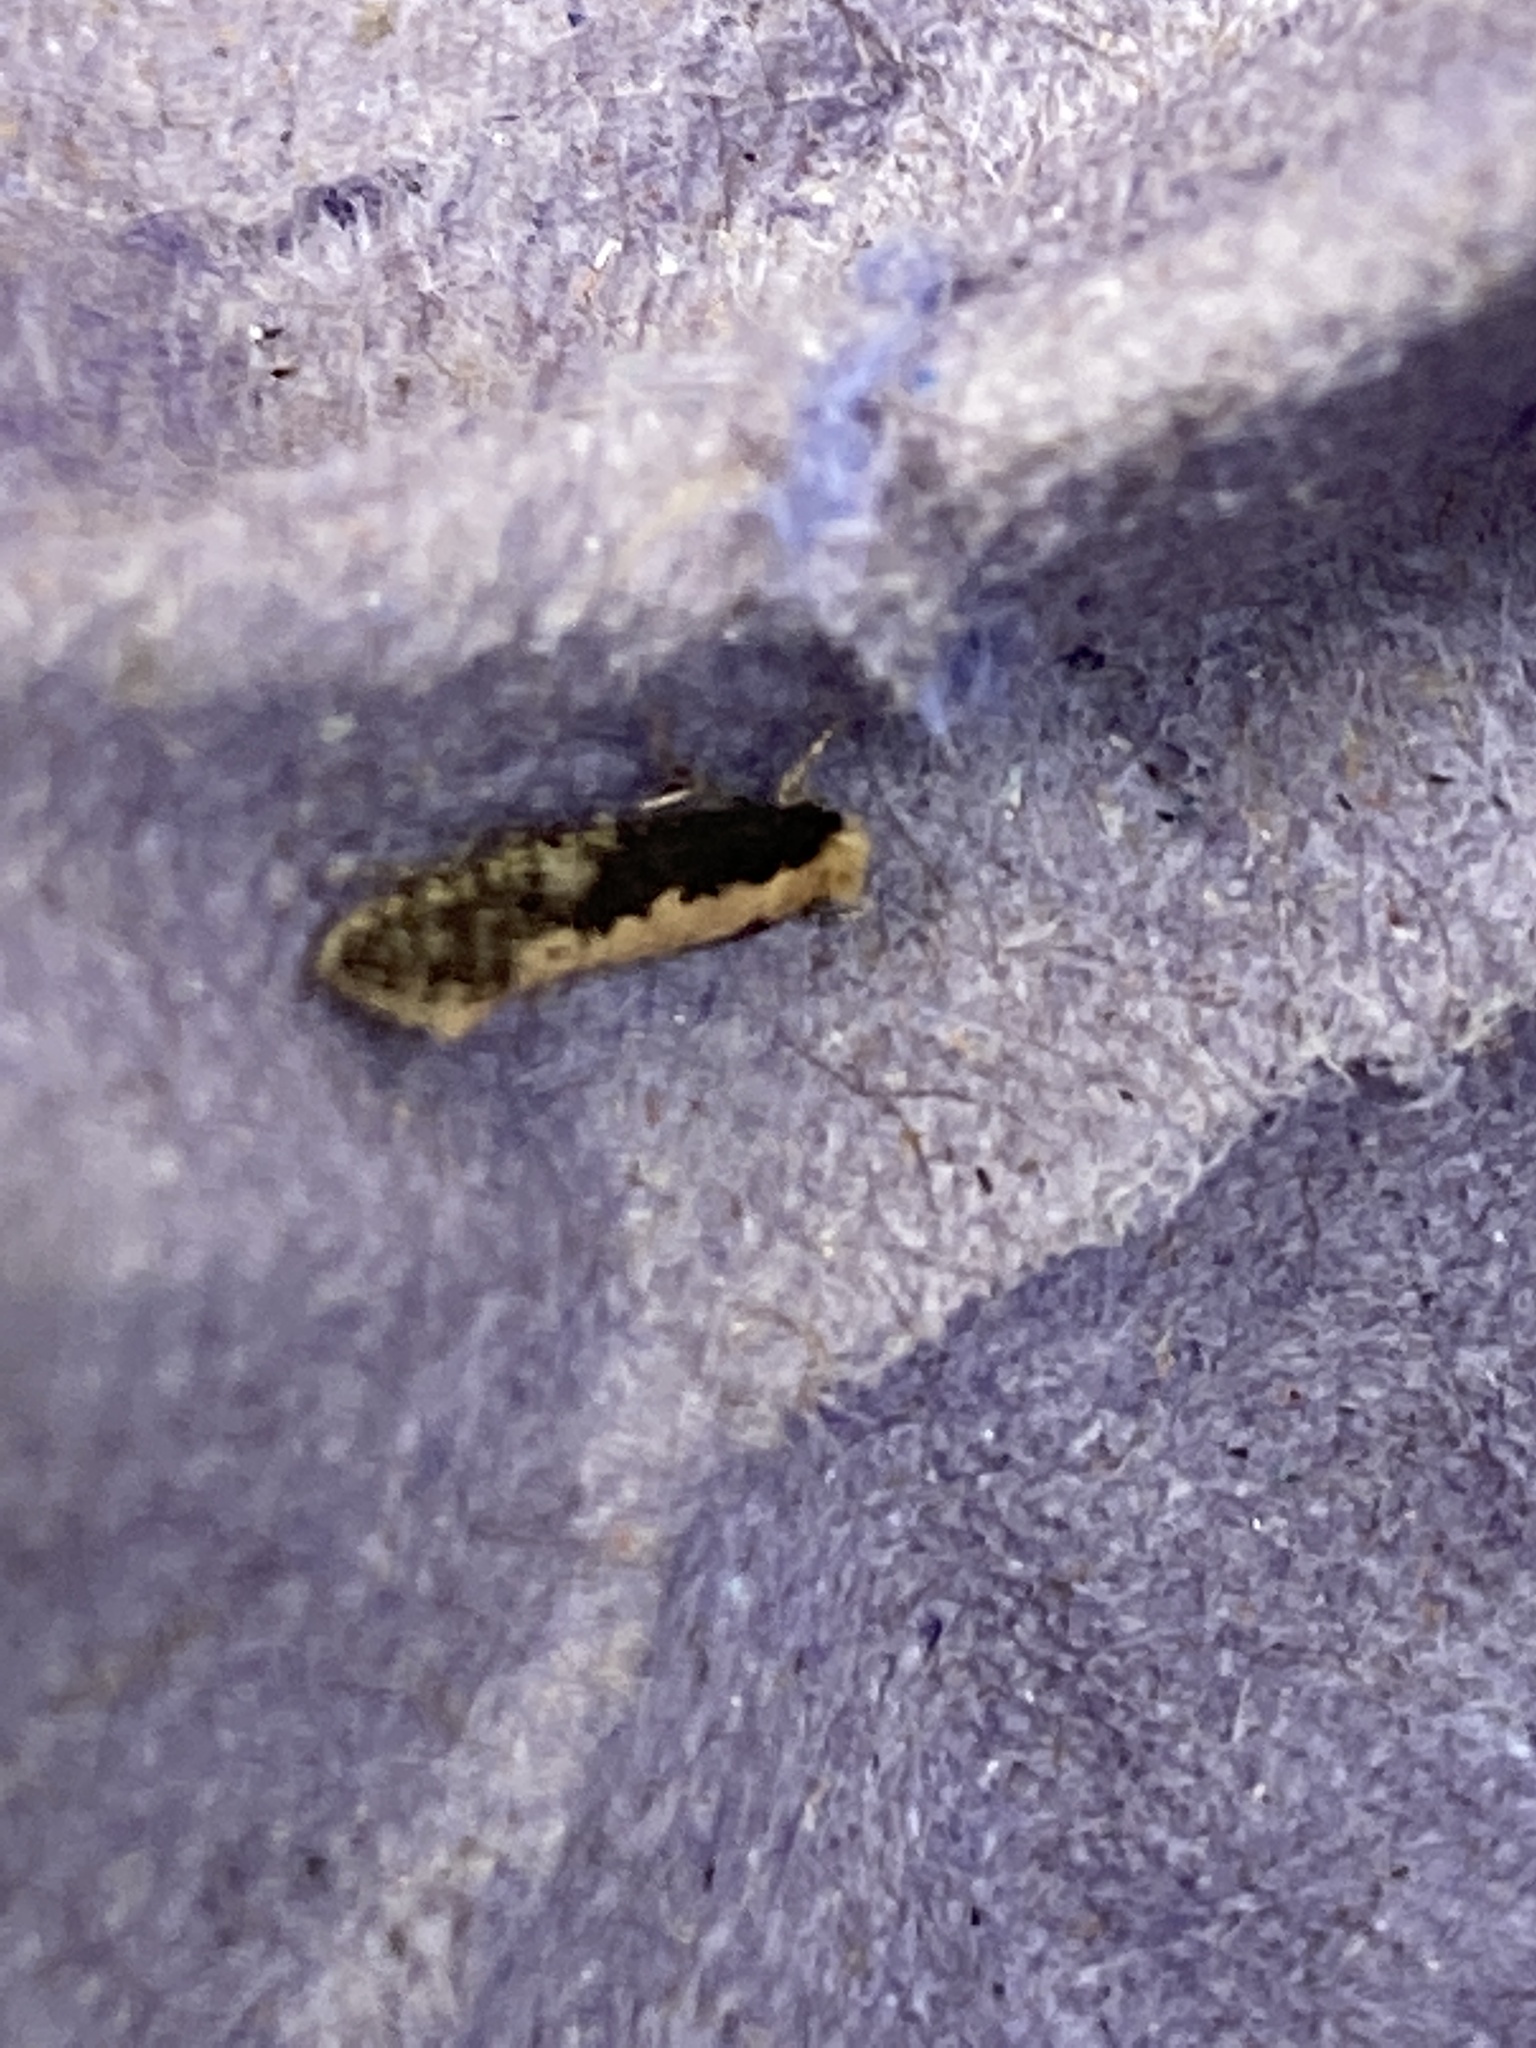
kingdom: Animalia
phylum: Arthropoda
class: Insecta
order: Lepidoptera
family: Tineidae
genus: Monopis
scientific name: Monopis crocicapitella
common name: Moth
